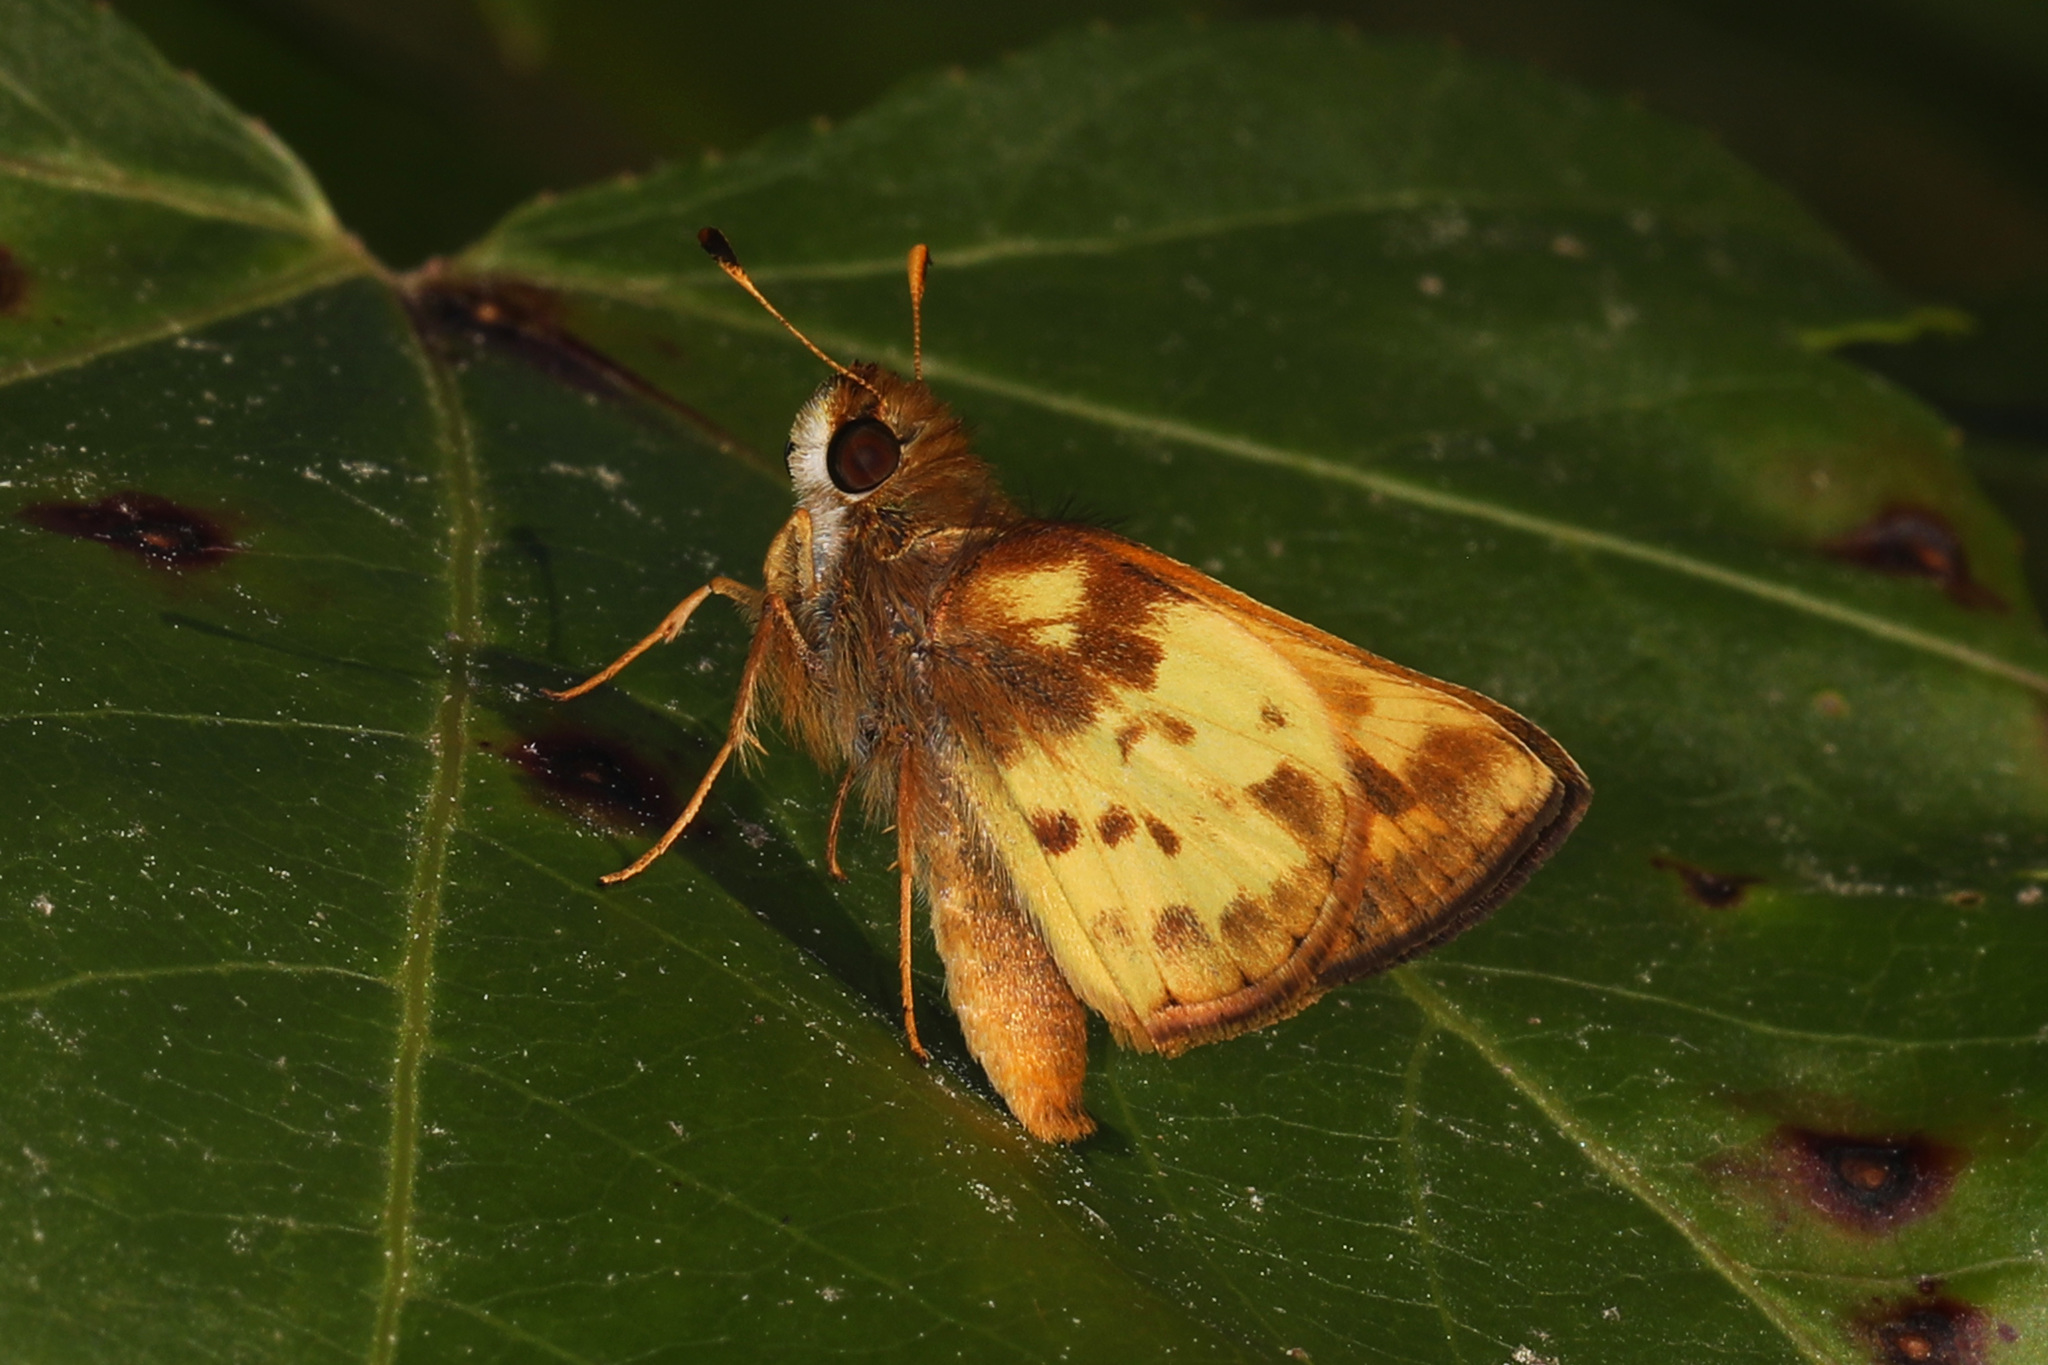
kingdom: Animalia
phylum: Arthropoda
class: Insecta
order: Lepidoptera
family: Hesperiidae
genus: Lon
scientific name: Lon zabulon
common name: Zabulon skipper
